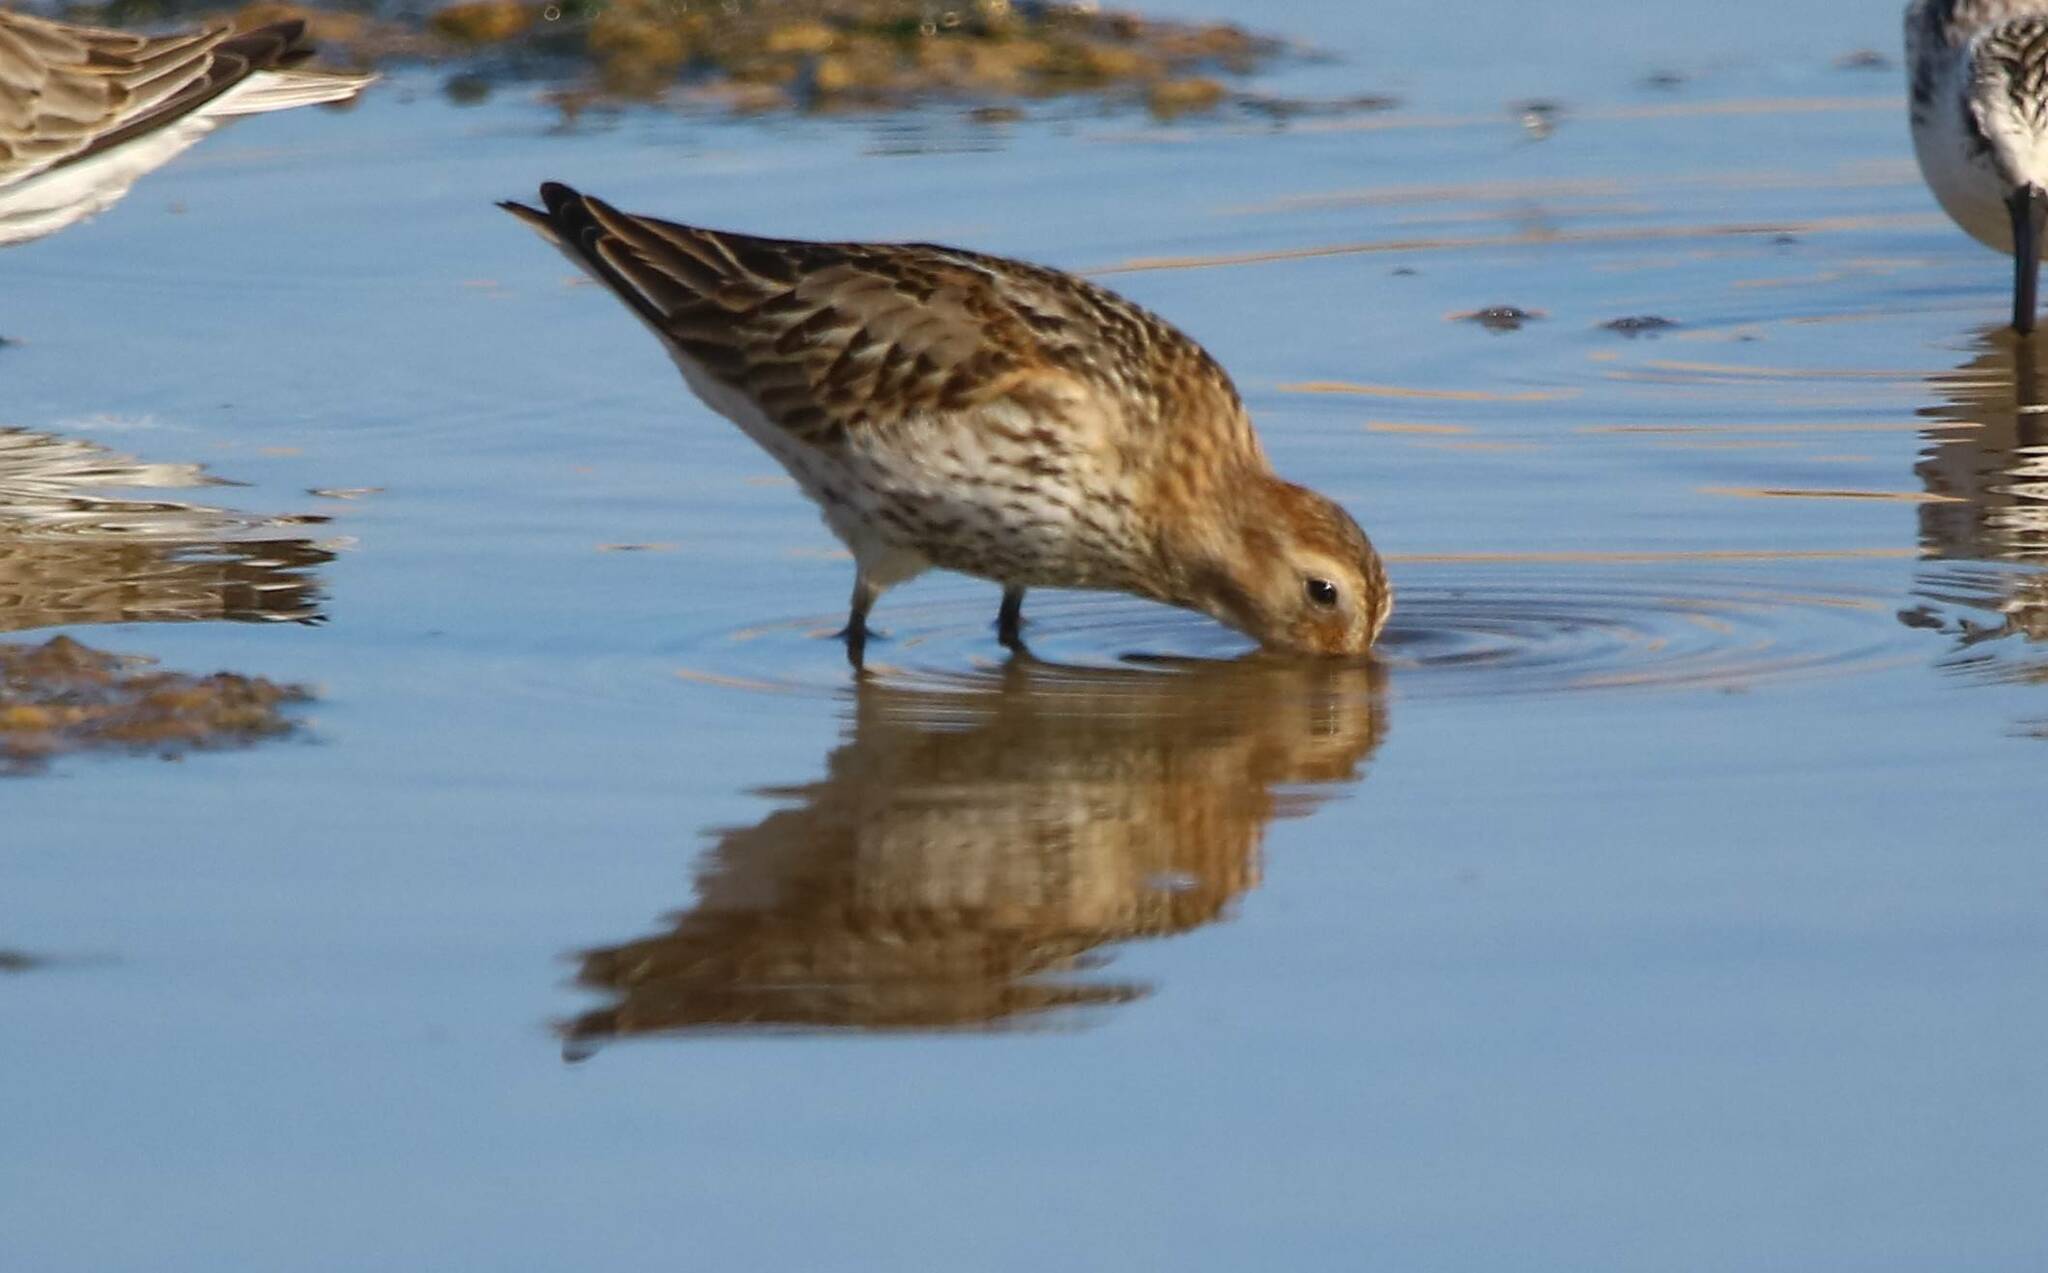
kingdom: Animalia
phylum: Chordata
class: Aves
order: Charadriiformes
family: Scolopacidae
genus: Calidris
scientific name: Calidris alpina
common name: Dunlin
